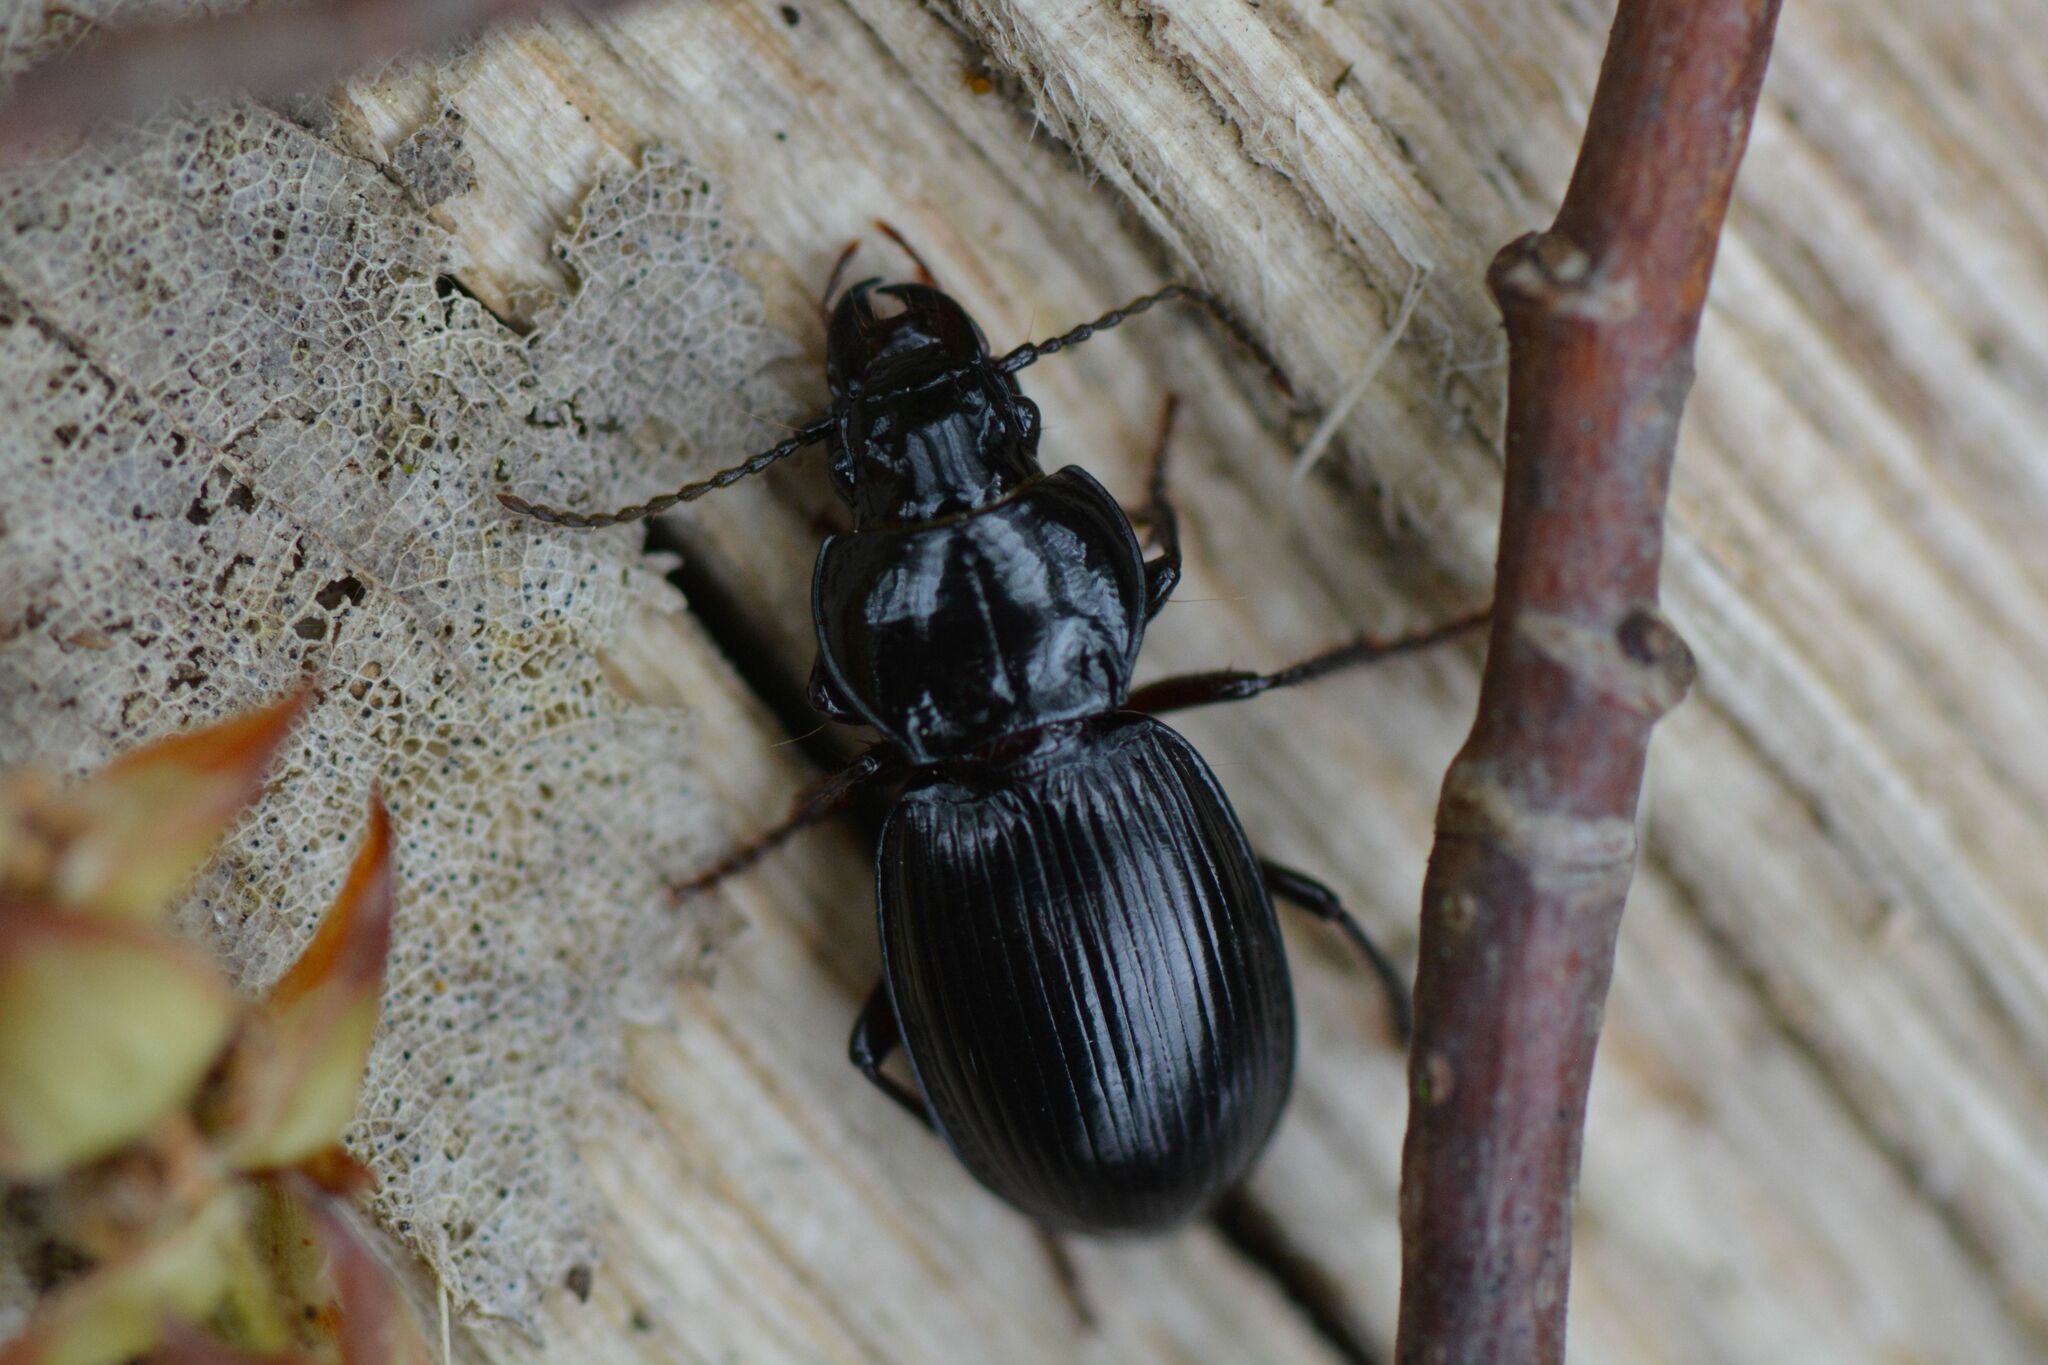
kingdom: Animalia
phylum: Arthropoda
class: Insecta
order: Coleoptera
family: Carabidae
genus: Molops
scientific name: Molops elatus
